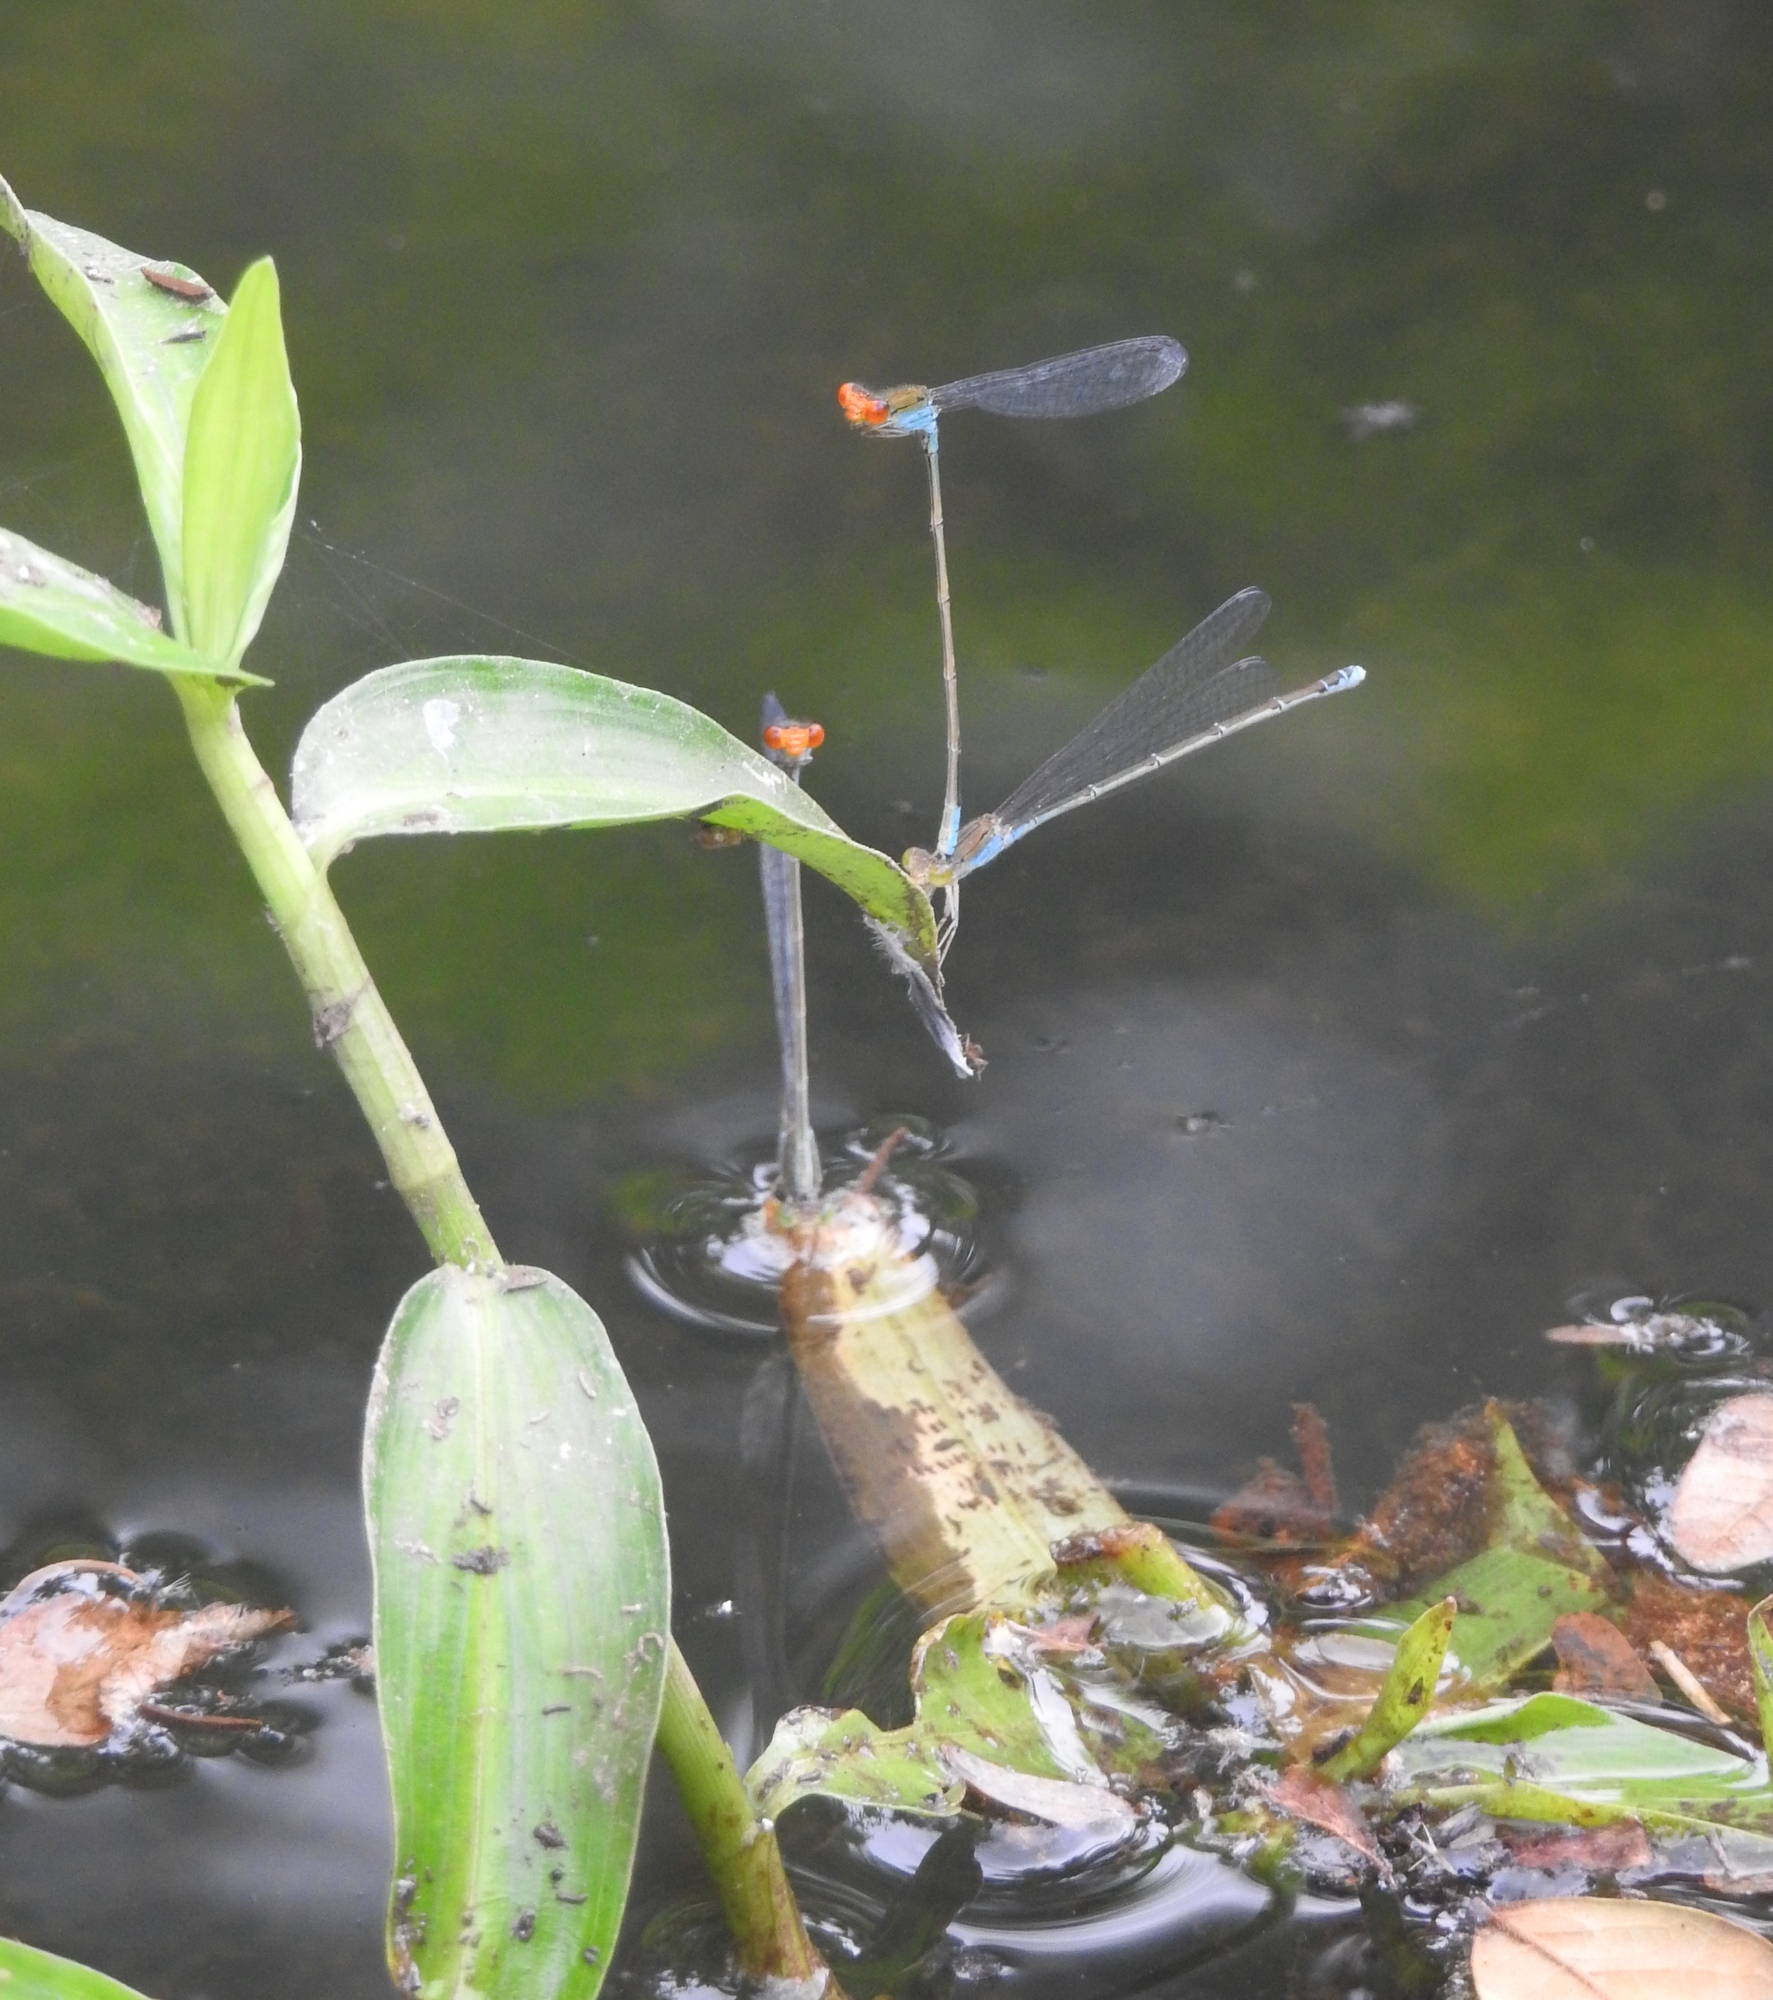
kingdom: Animalia
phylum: Arthropoda
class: Insecta
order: Odonata
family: Coenagrionidae
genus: Pseudagrion
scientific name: Pseudagrion rubriceps
